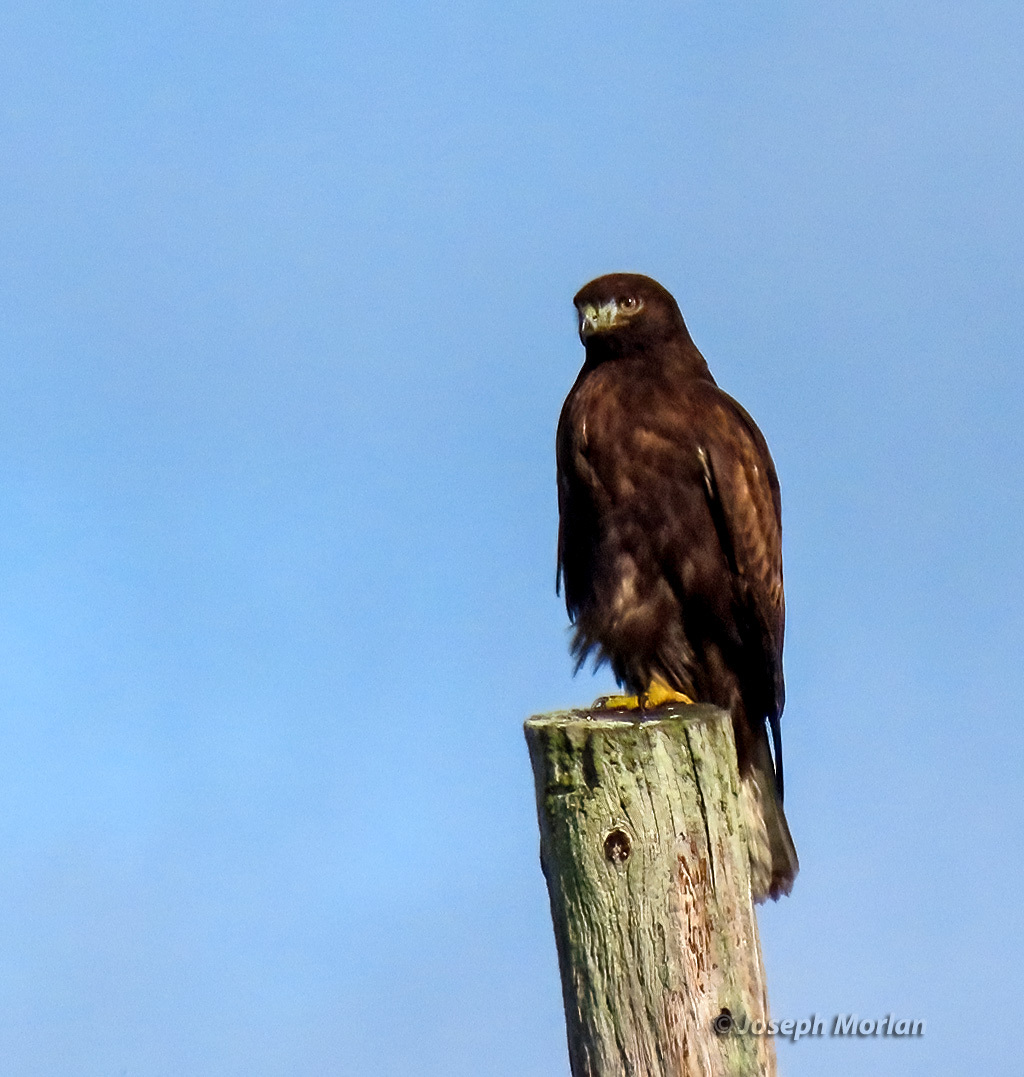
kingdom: Animalia
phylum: Chordata
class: Aves
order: Accipitriformes
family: Accipitridae
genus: Buteo
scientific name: Buteo jamaicensis
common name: Red-tailed hawk
